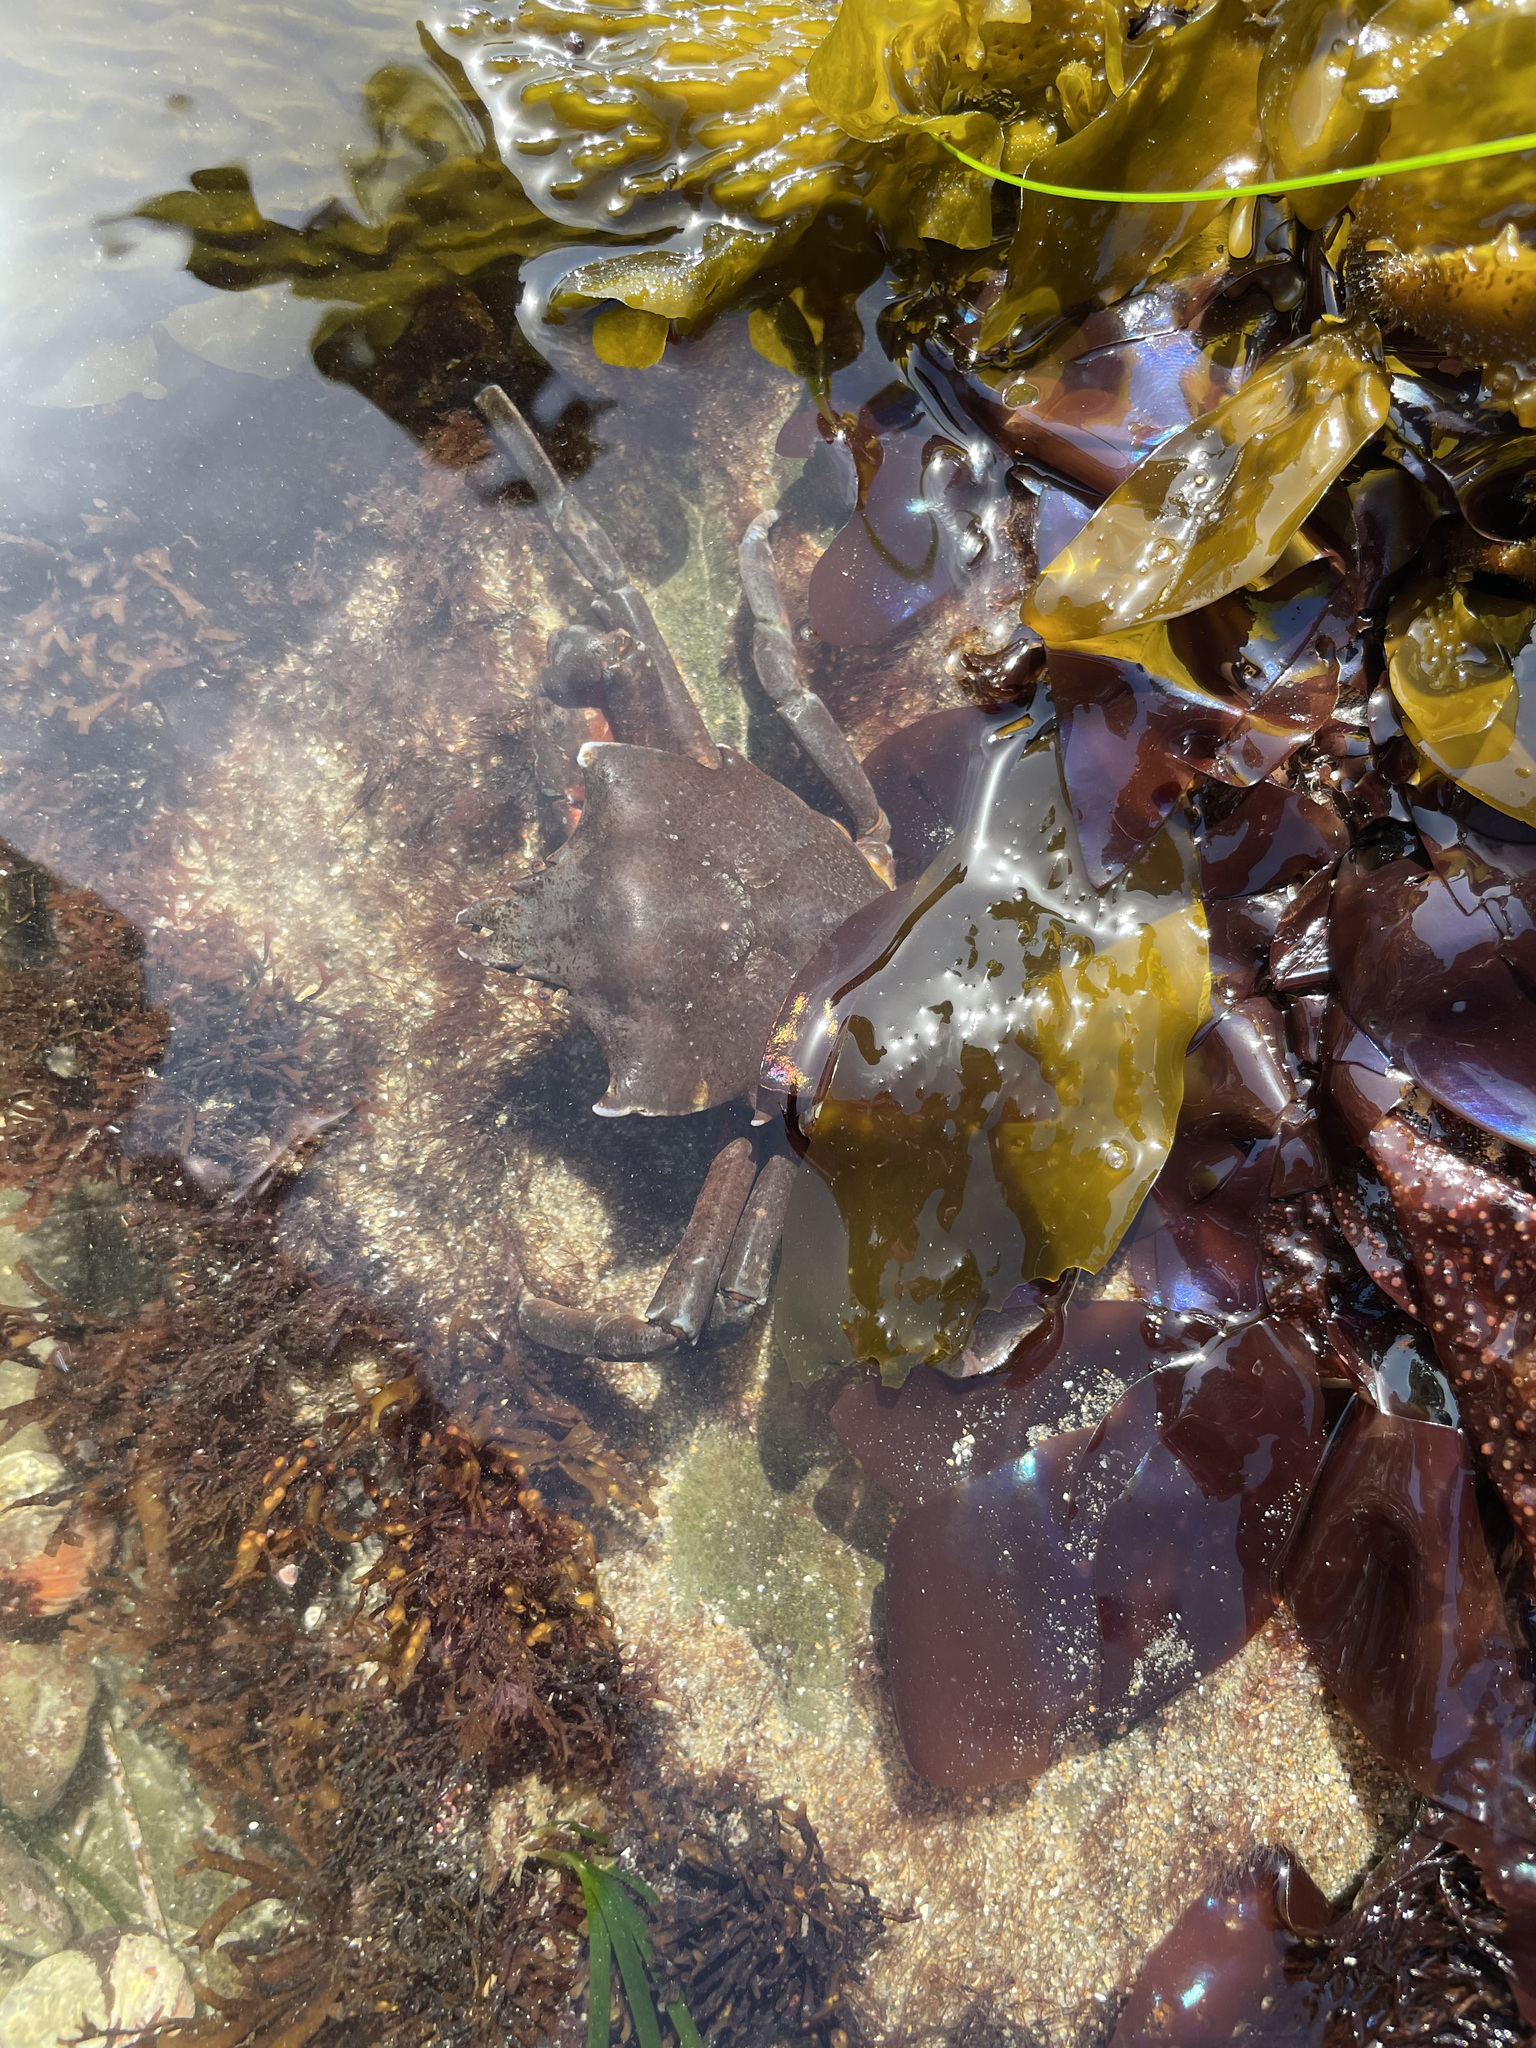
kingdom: Animalia
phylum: Arthropoda
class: Malacostraca
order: Decapoda
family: Epialtidae
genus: Pugettia
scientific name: Pugettia producta
